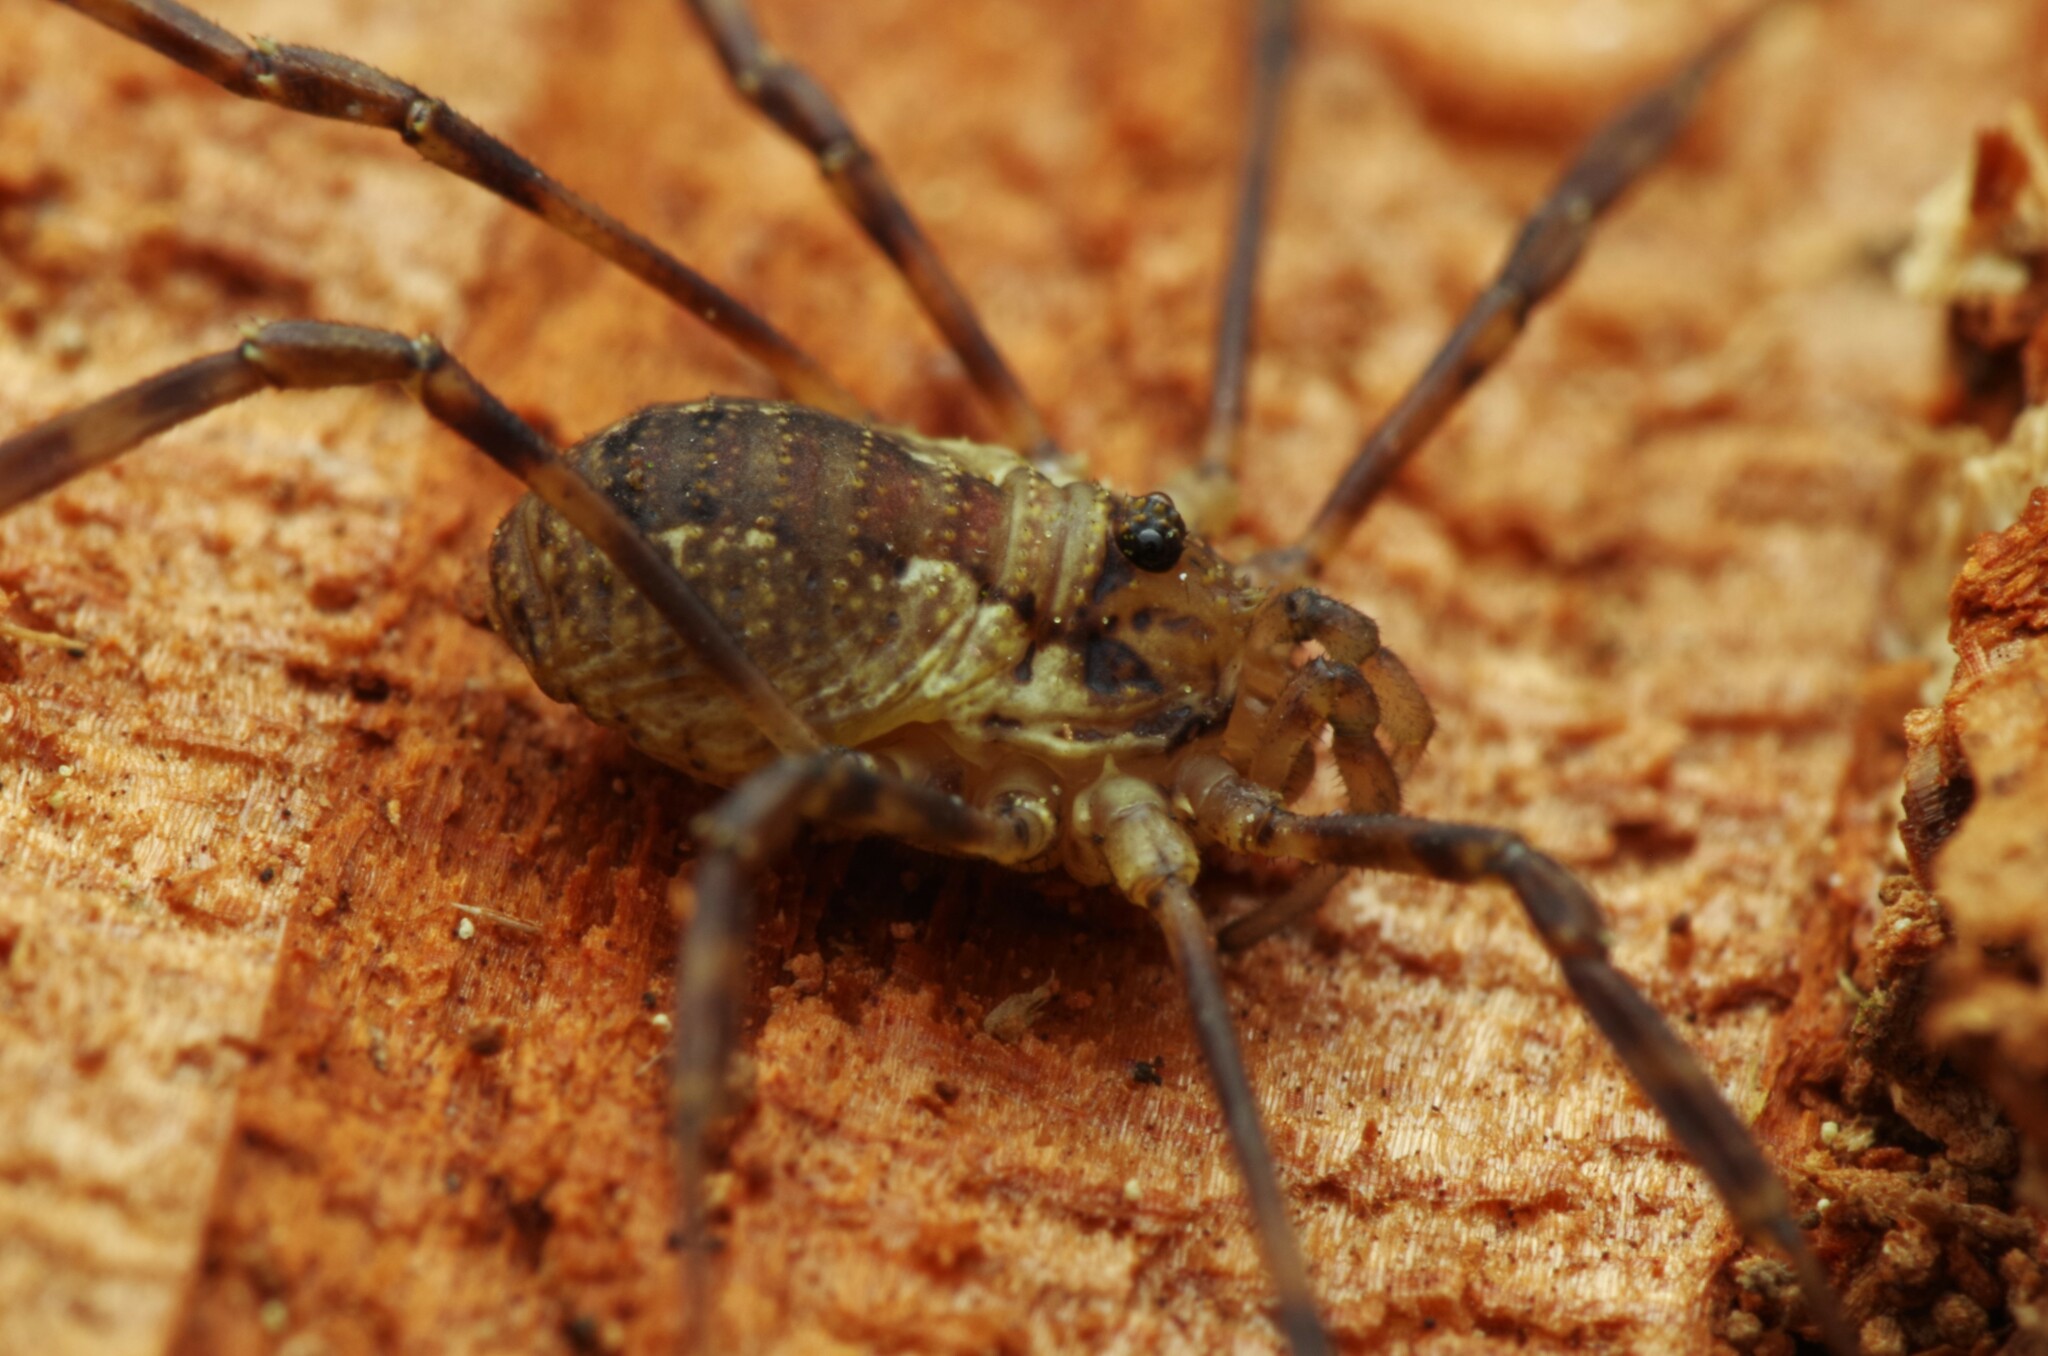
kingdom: Animalia
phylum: Arthropoda
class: Arachnida
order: Opiliones
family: Phalangiidae
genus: Oligolophus
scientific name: Oligolophus hansenii
